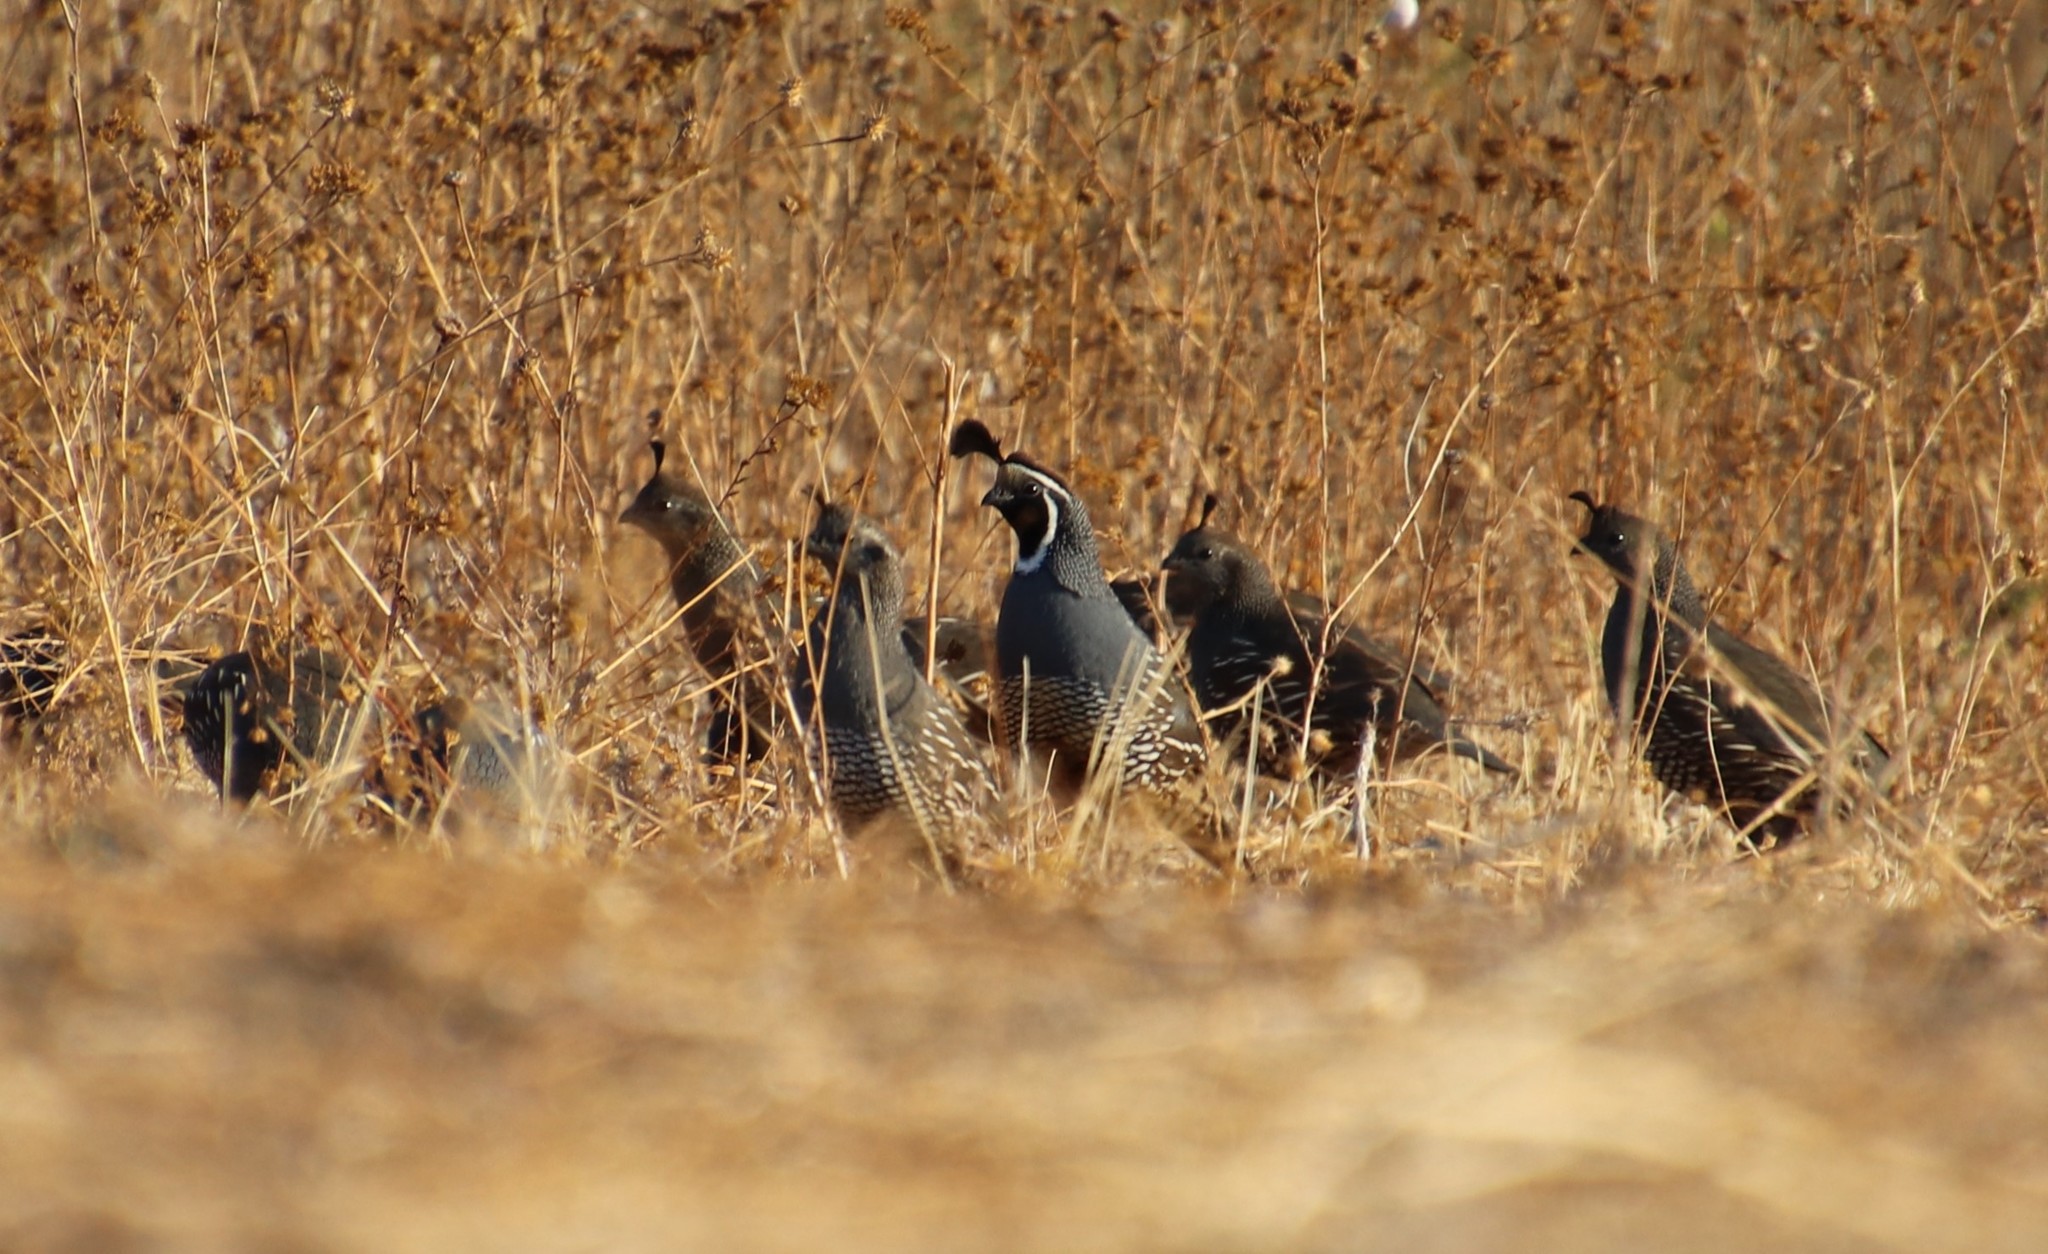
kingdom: Animalia
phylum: Chordata
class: Aves
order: Galliformes
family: Odontophoridae
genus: Callipepla
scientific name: Callipepla californica
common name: California quail
